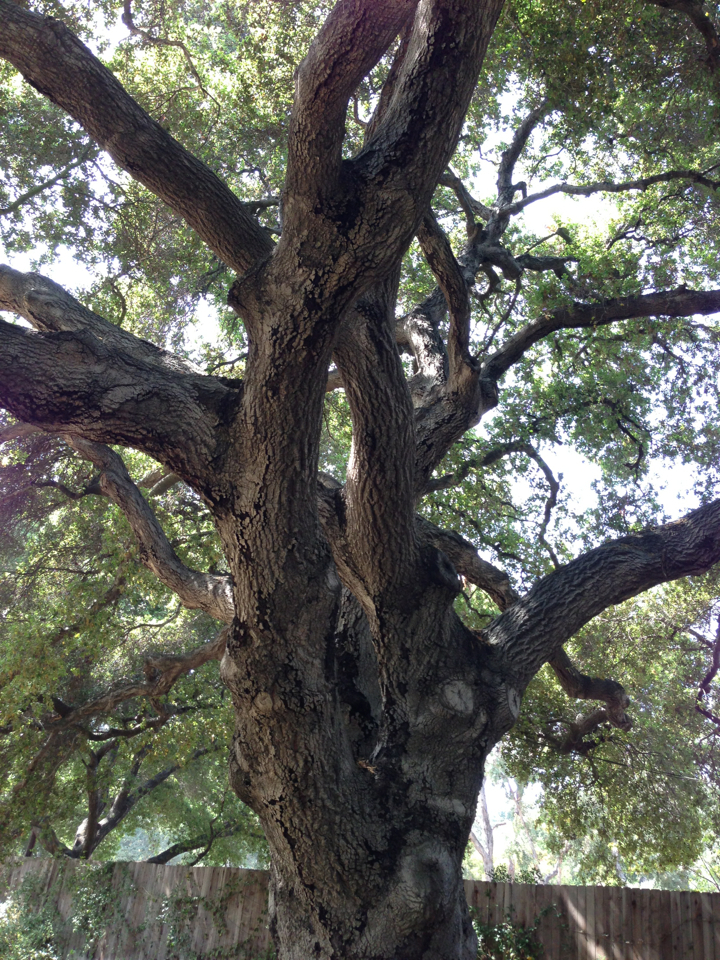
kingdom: Plantae
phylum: Tracheophyta
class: Magnoliopsida
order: Fagales
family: Fagaceae
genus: Quercus
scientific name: Quercus agrifolia
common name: California live oak
